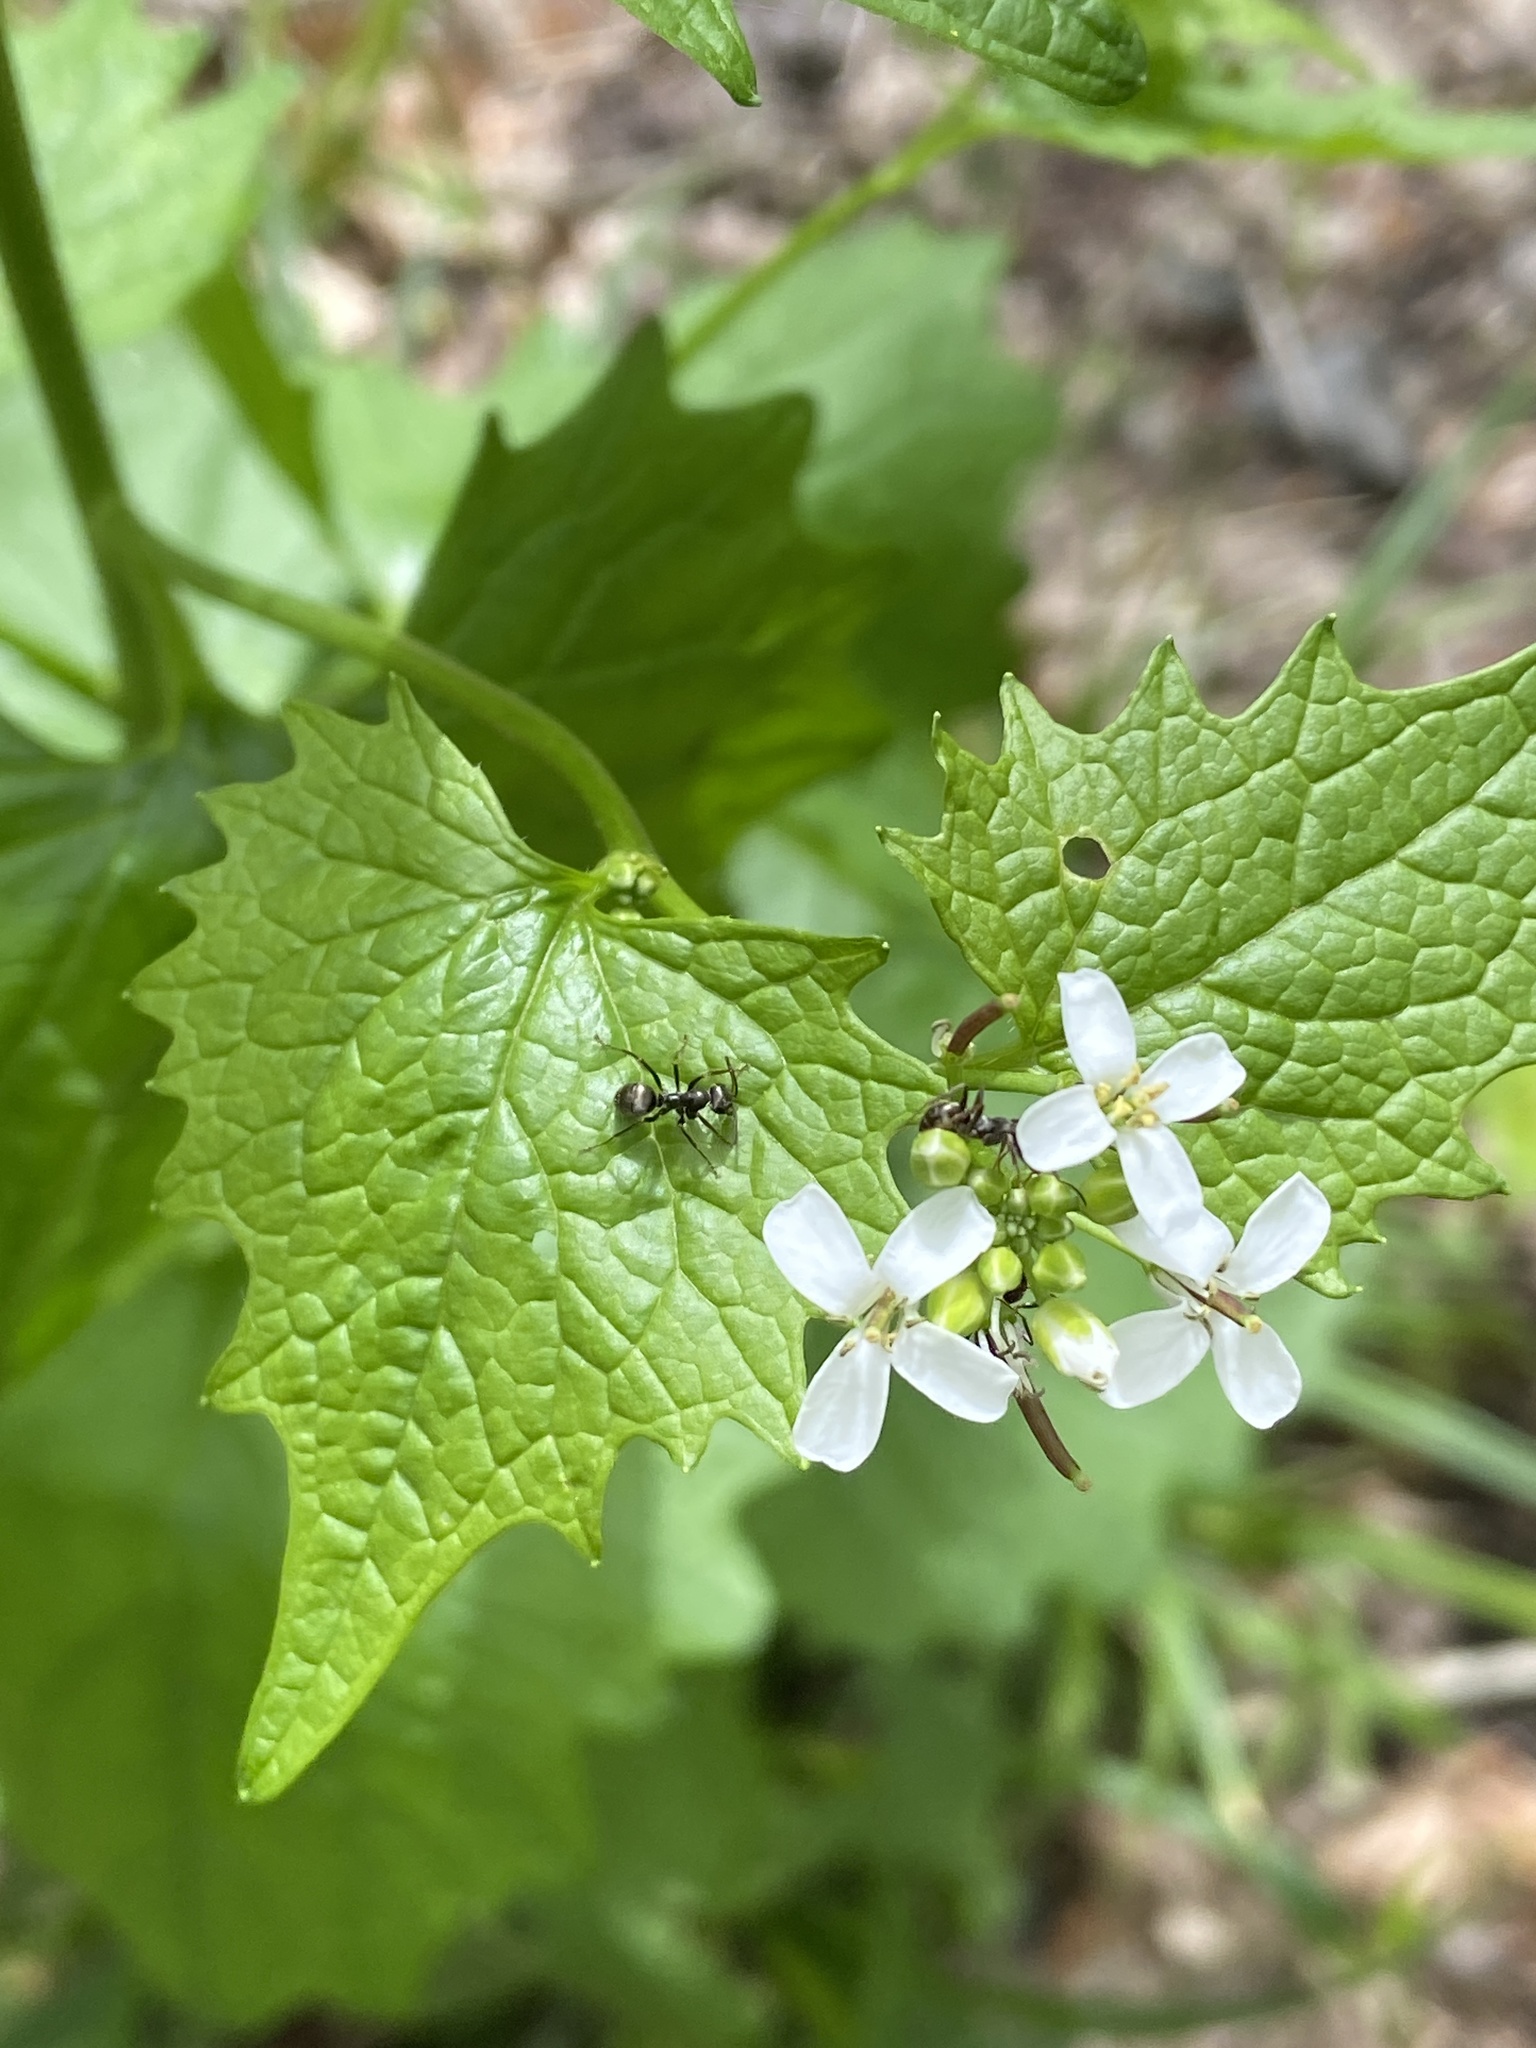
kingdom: Plantae
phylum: Tracheophyta
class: Magnoliopsida
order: Brassicales
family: Brassicaceae
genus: Alliaria
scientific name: Alliaria petiolata
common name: Garlic mustard
